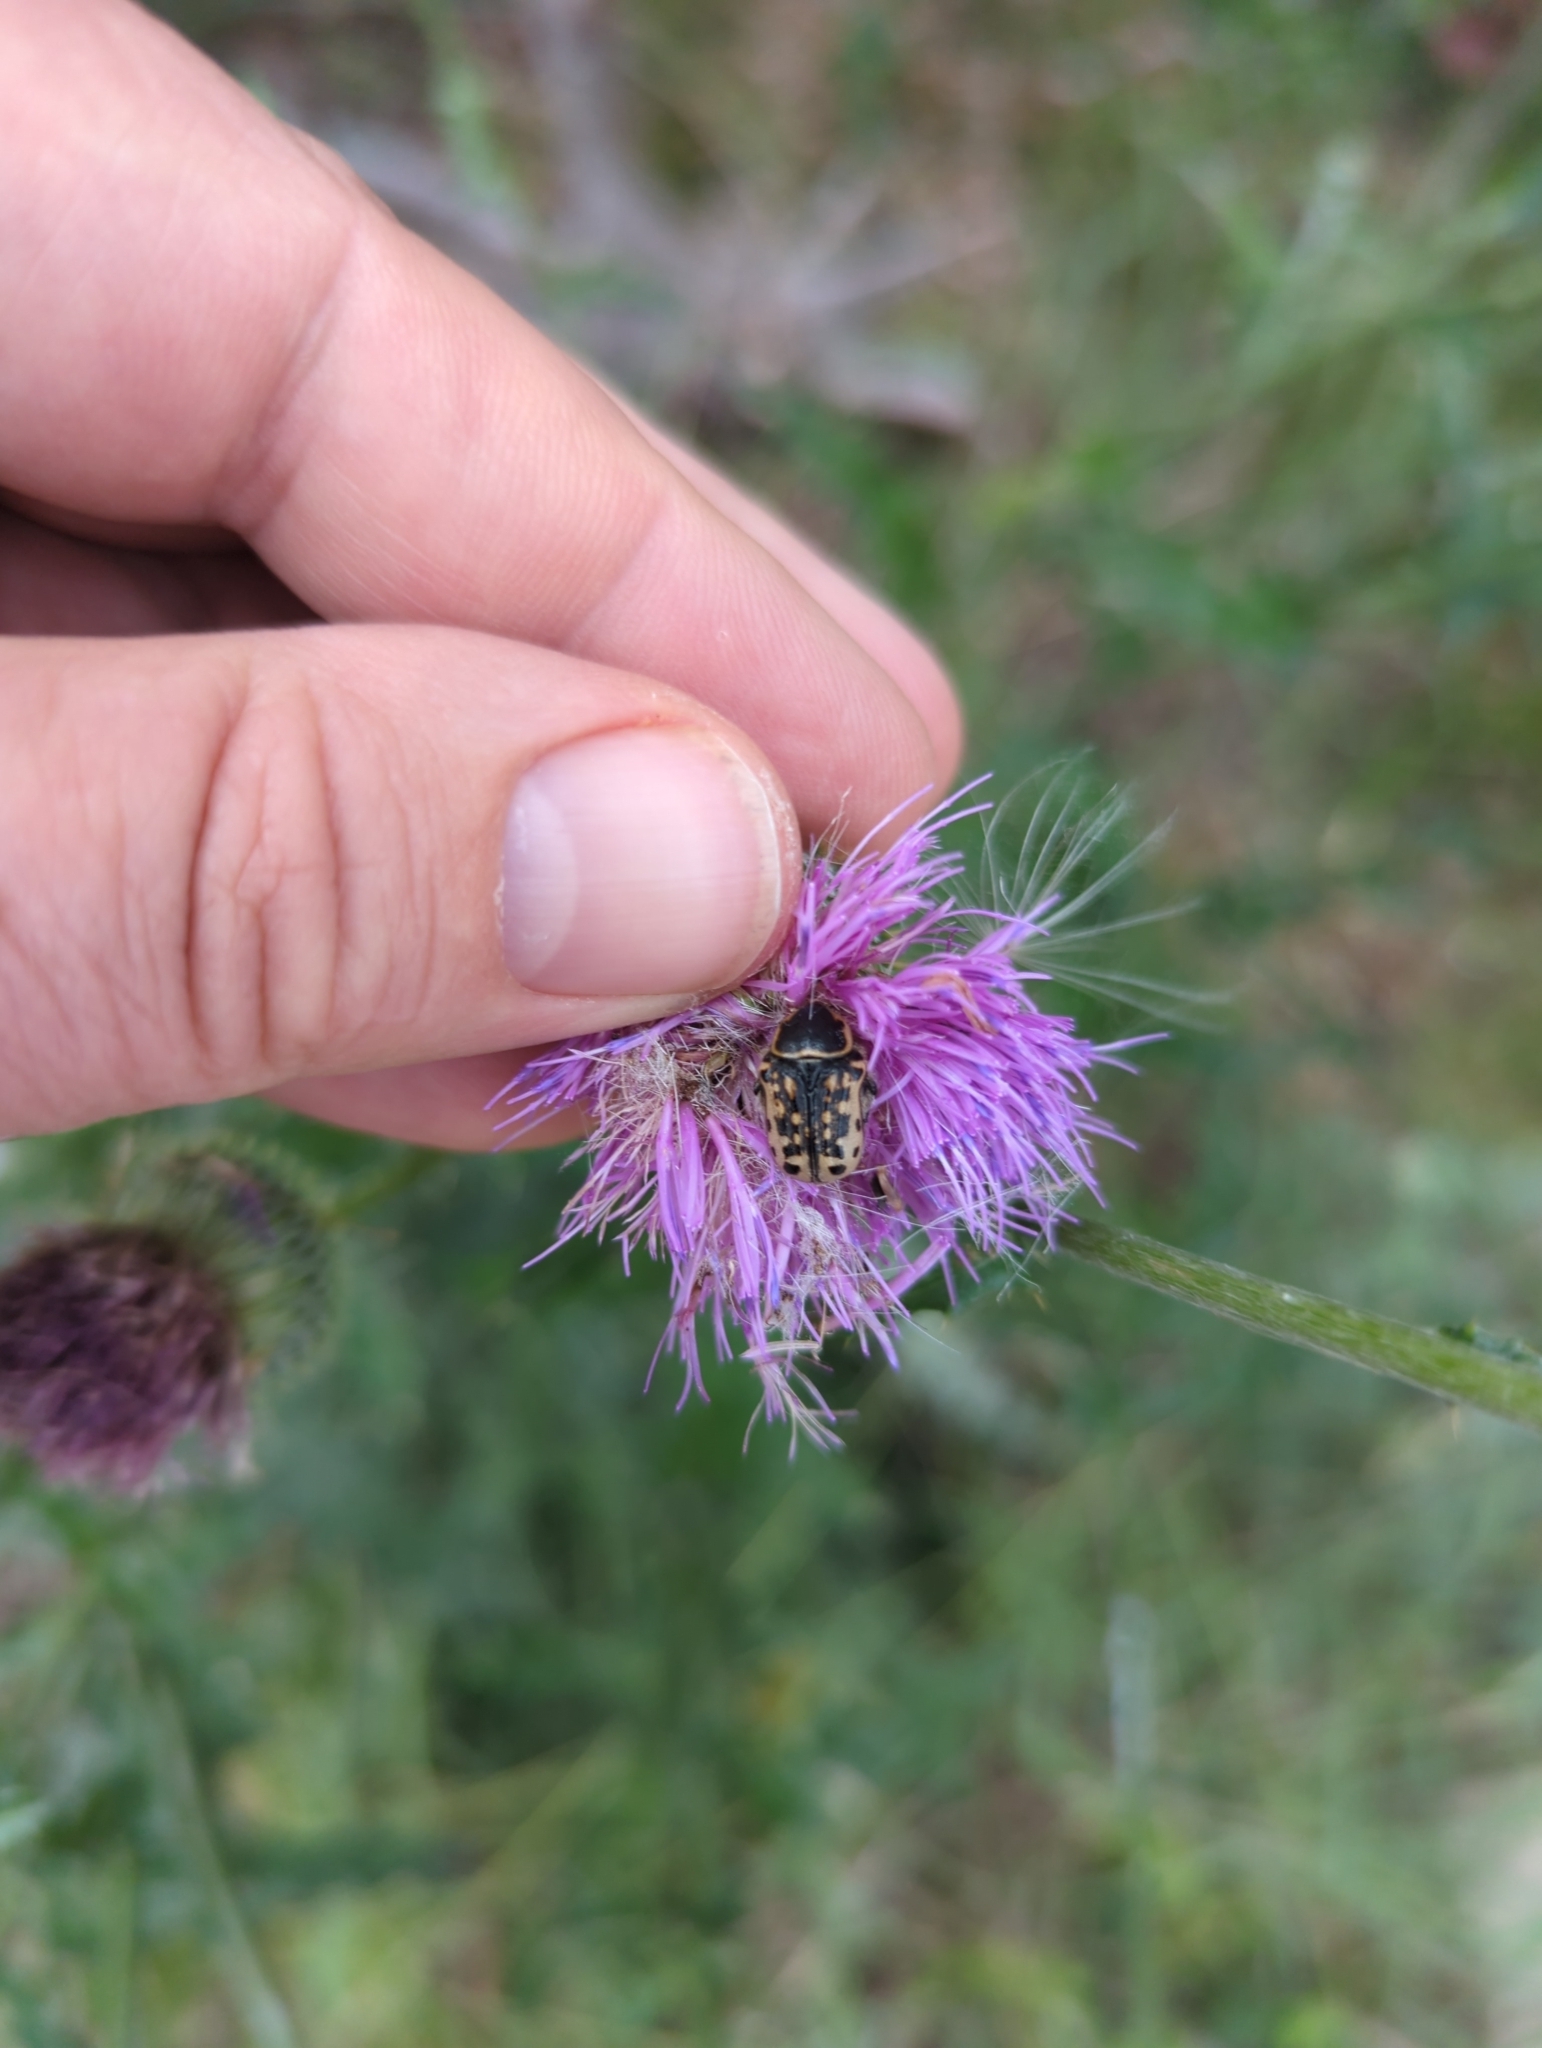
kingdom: Animalia
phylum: Arthropoda
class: Insecta
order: Coleoptera
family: Scarabaeidae
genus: Euphoria
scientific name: Euphoria kernii
